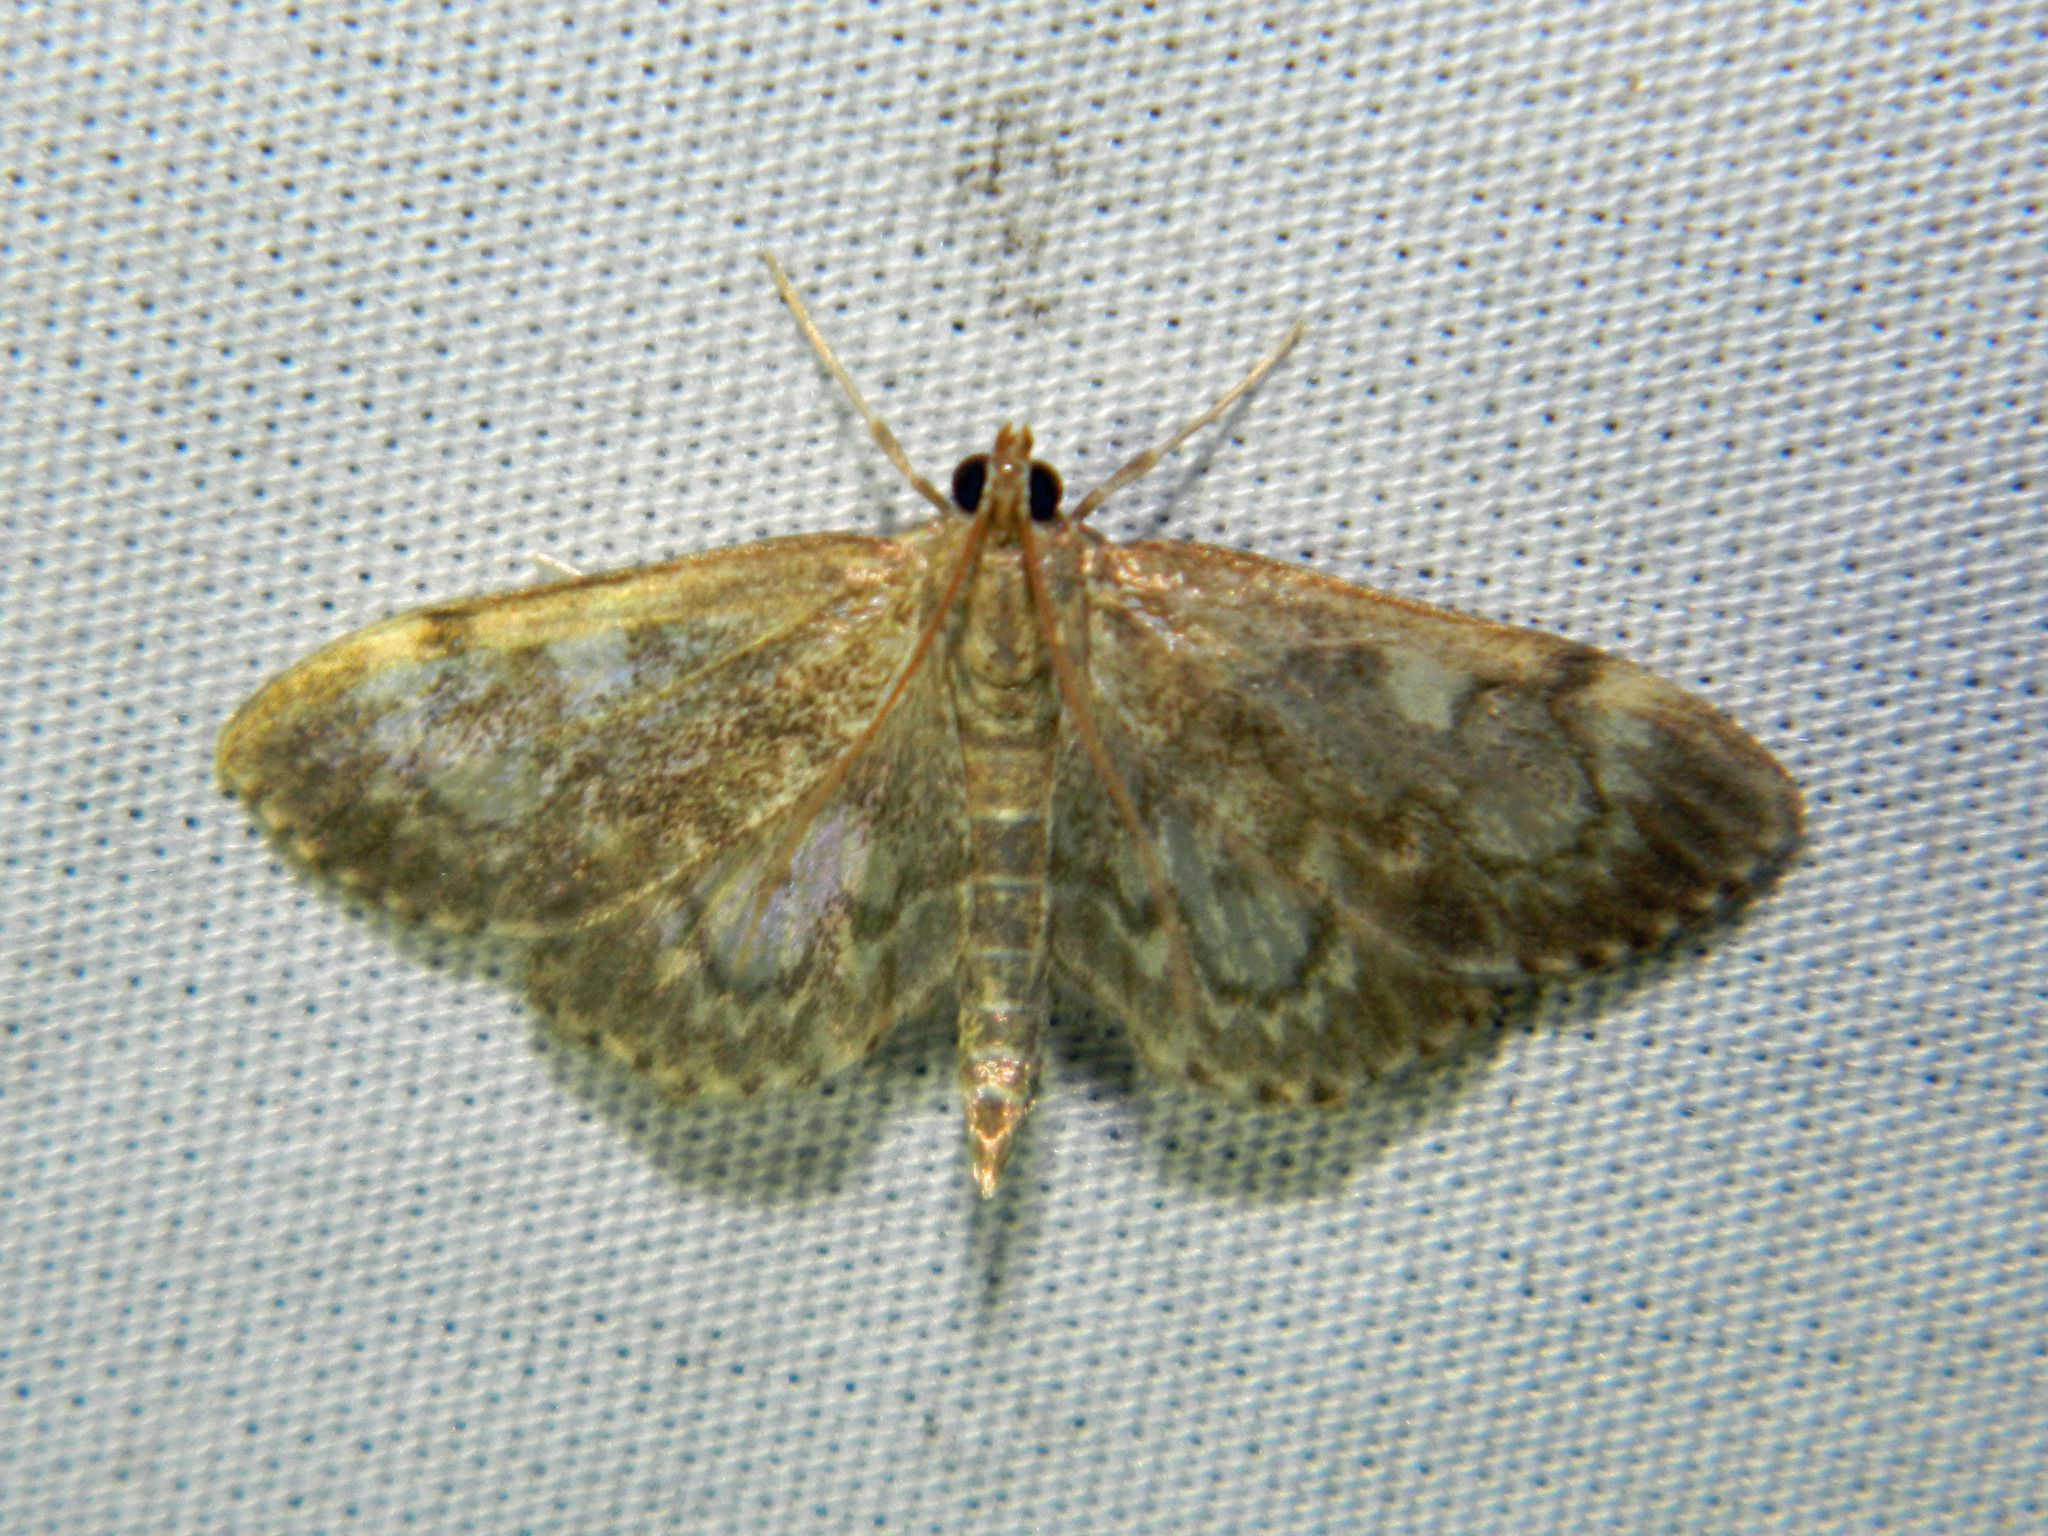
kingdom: Animalia
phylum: Arthropoda
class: Insecta
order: Lepidoptera
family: Crambidae
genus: Anania
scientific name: Anania
